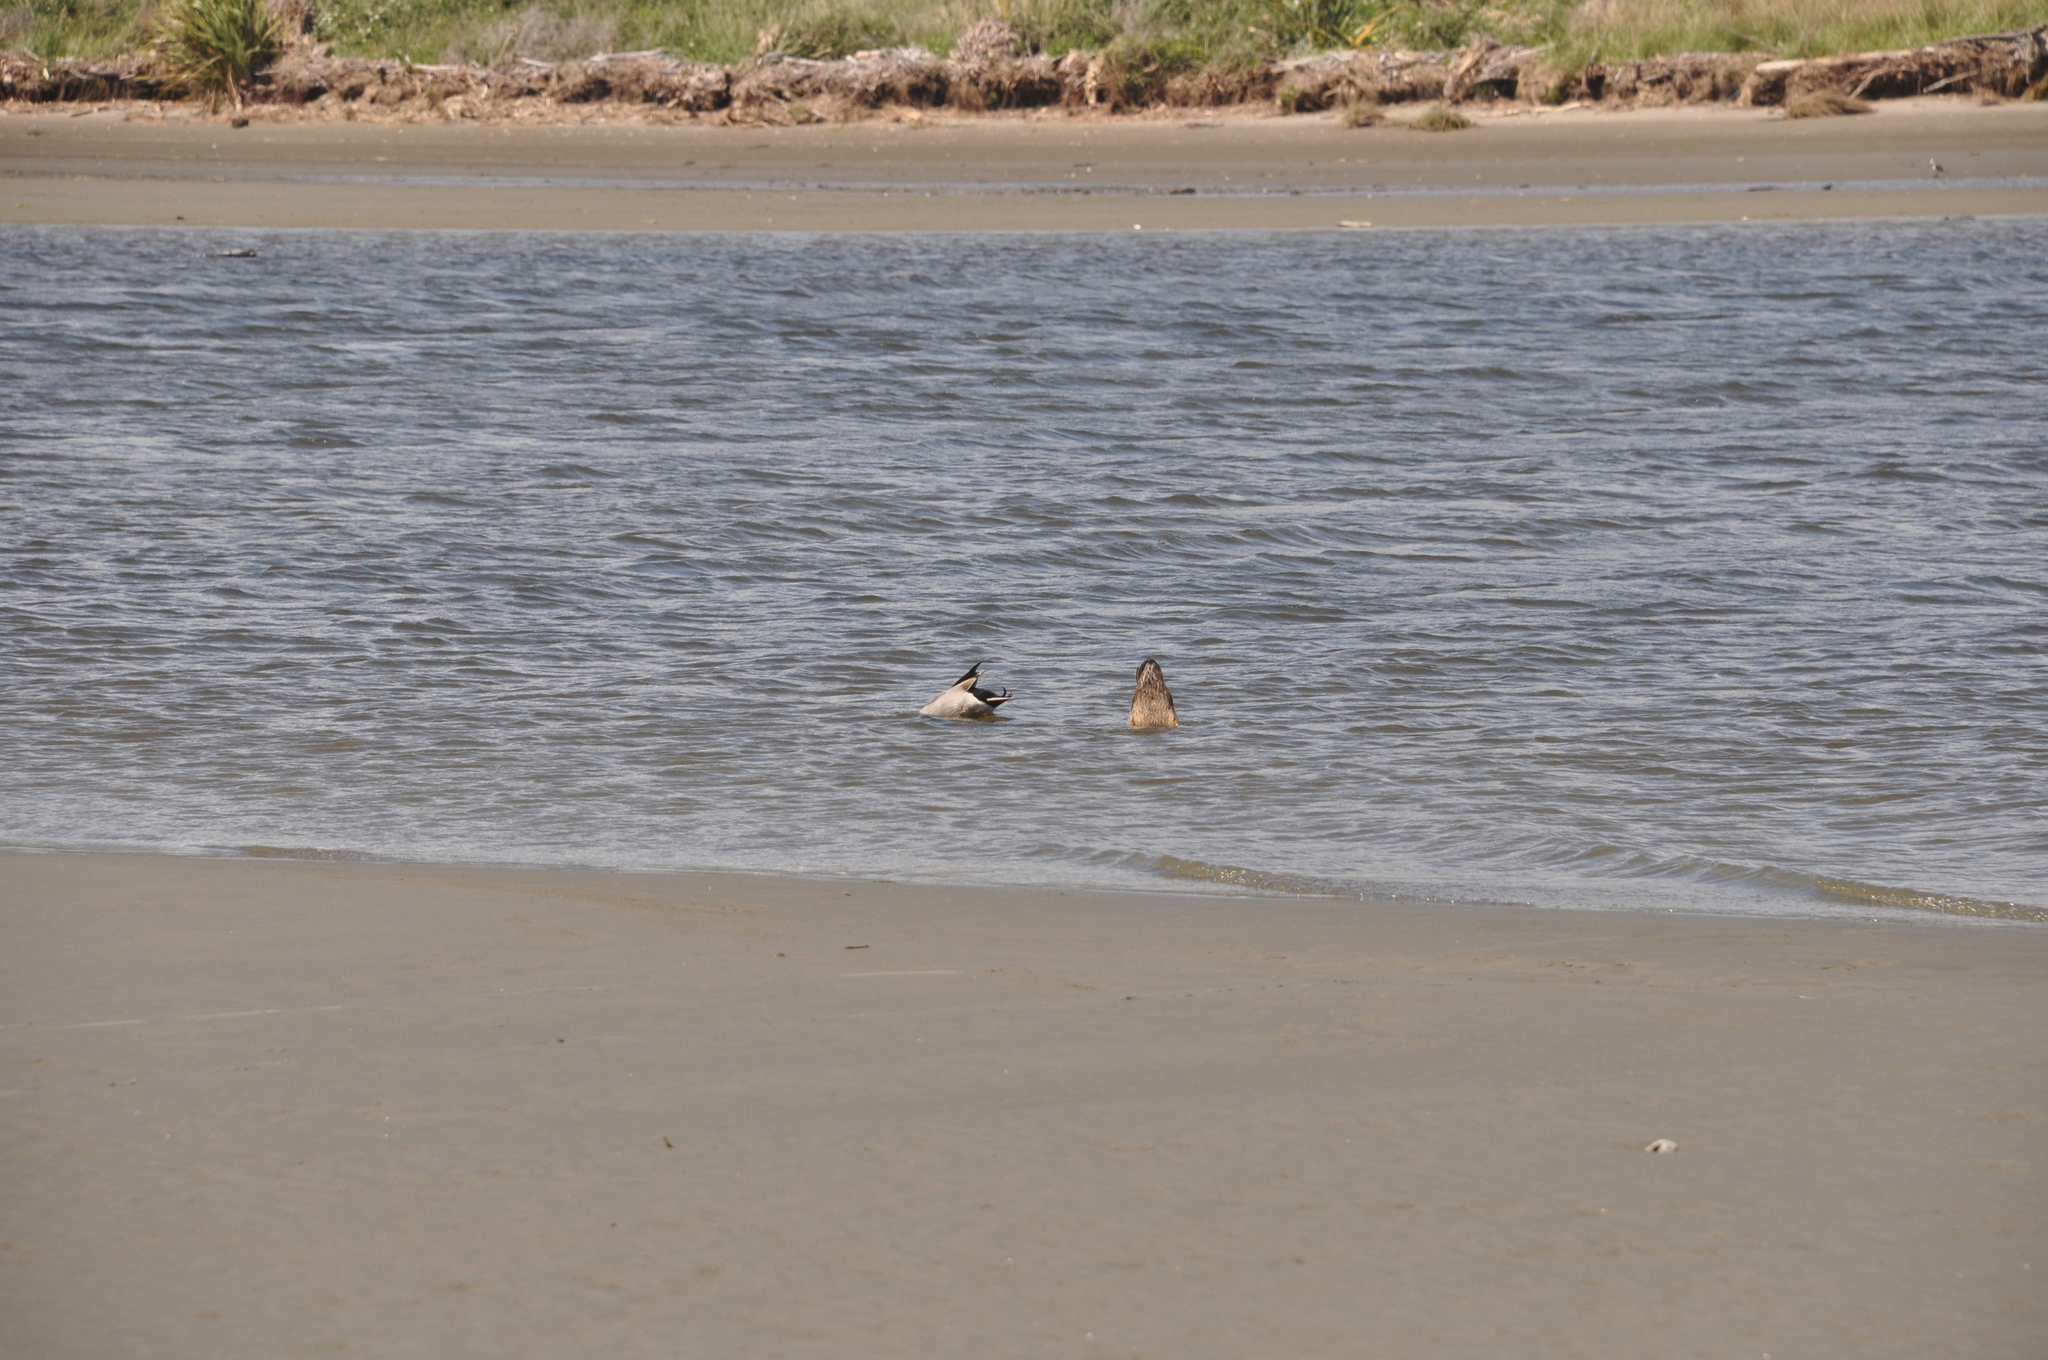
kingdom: Animalia
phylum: Chordata
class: Aves
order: Anseriformes
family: Anatidae
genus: Anas
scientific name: Anas platyrhynchos
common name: Mallard
